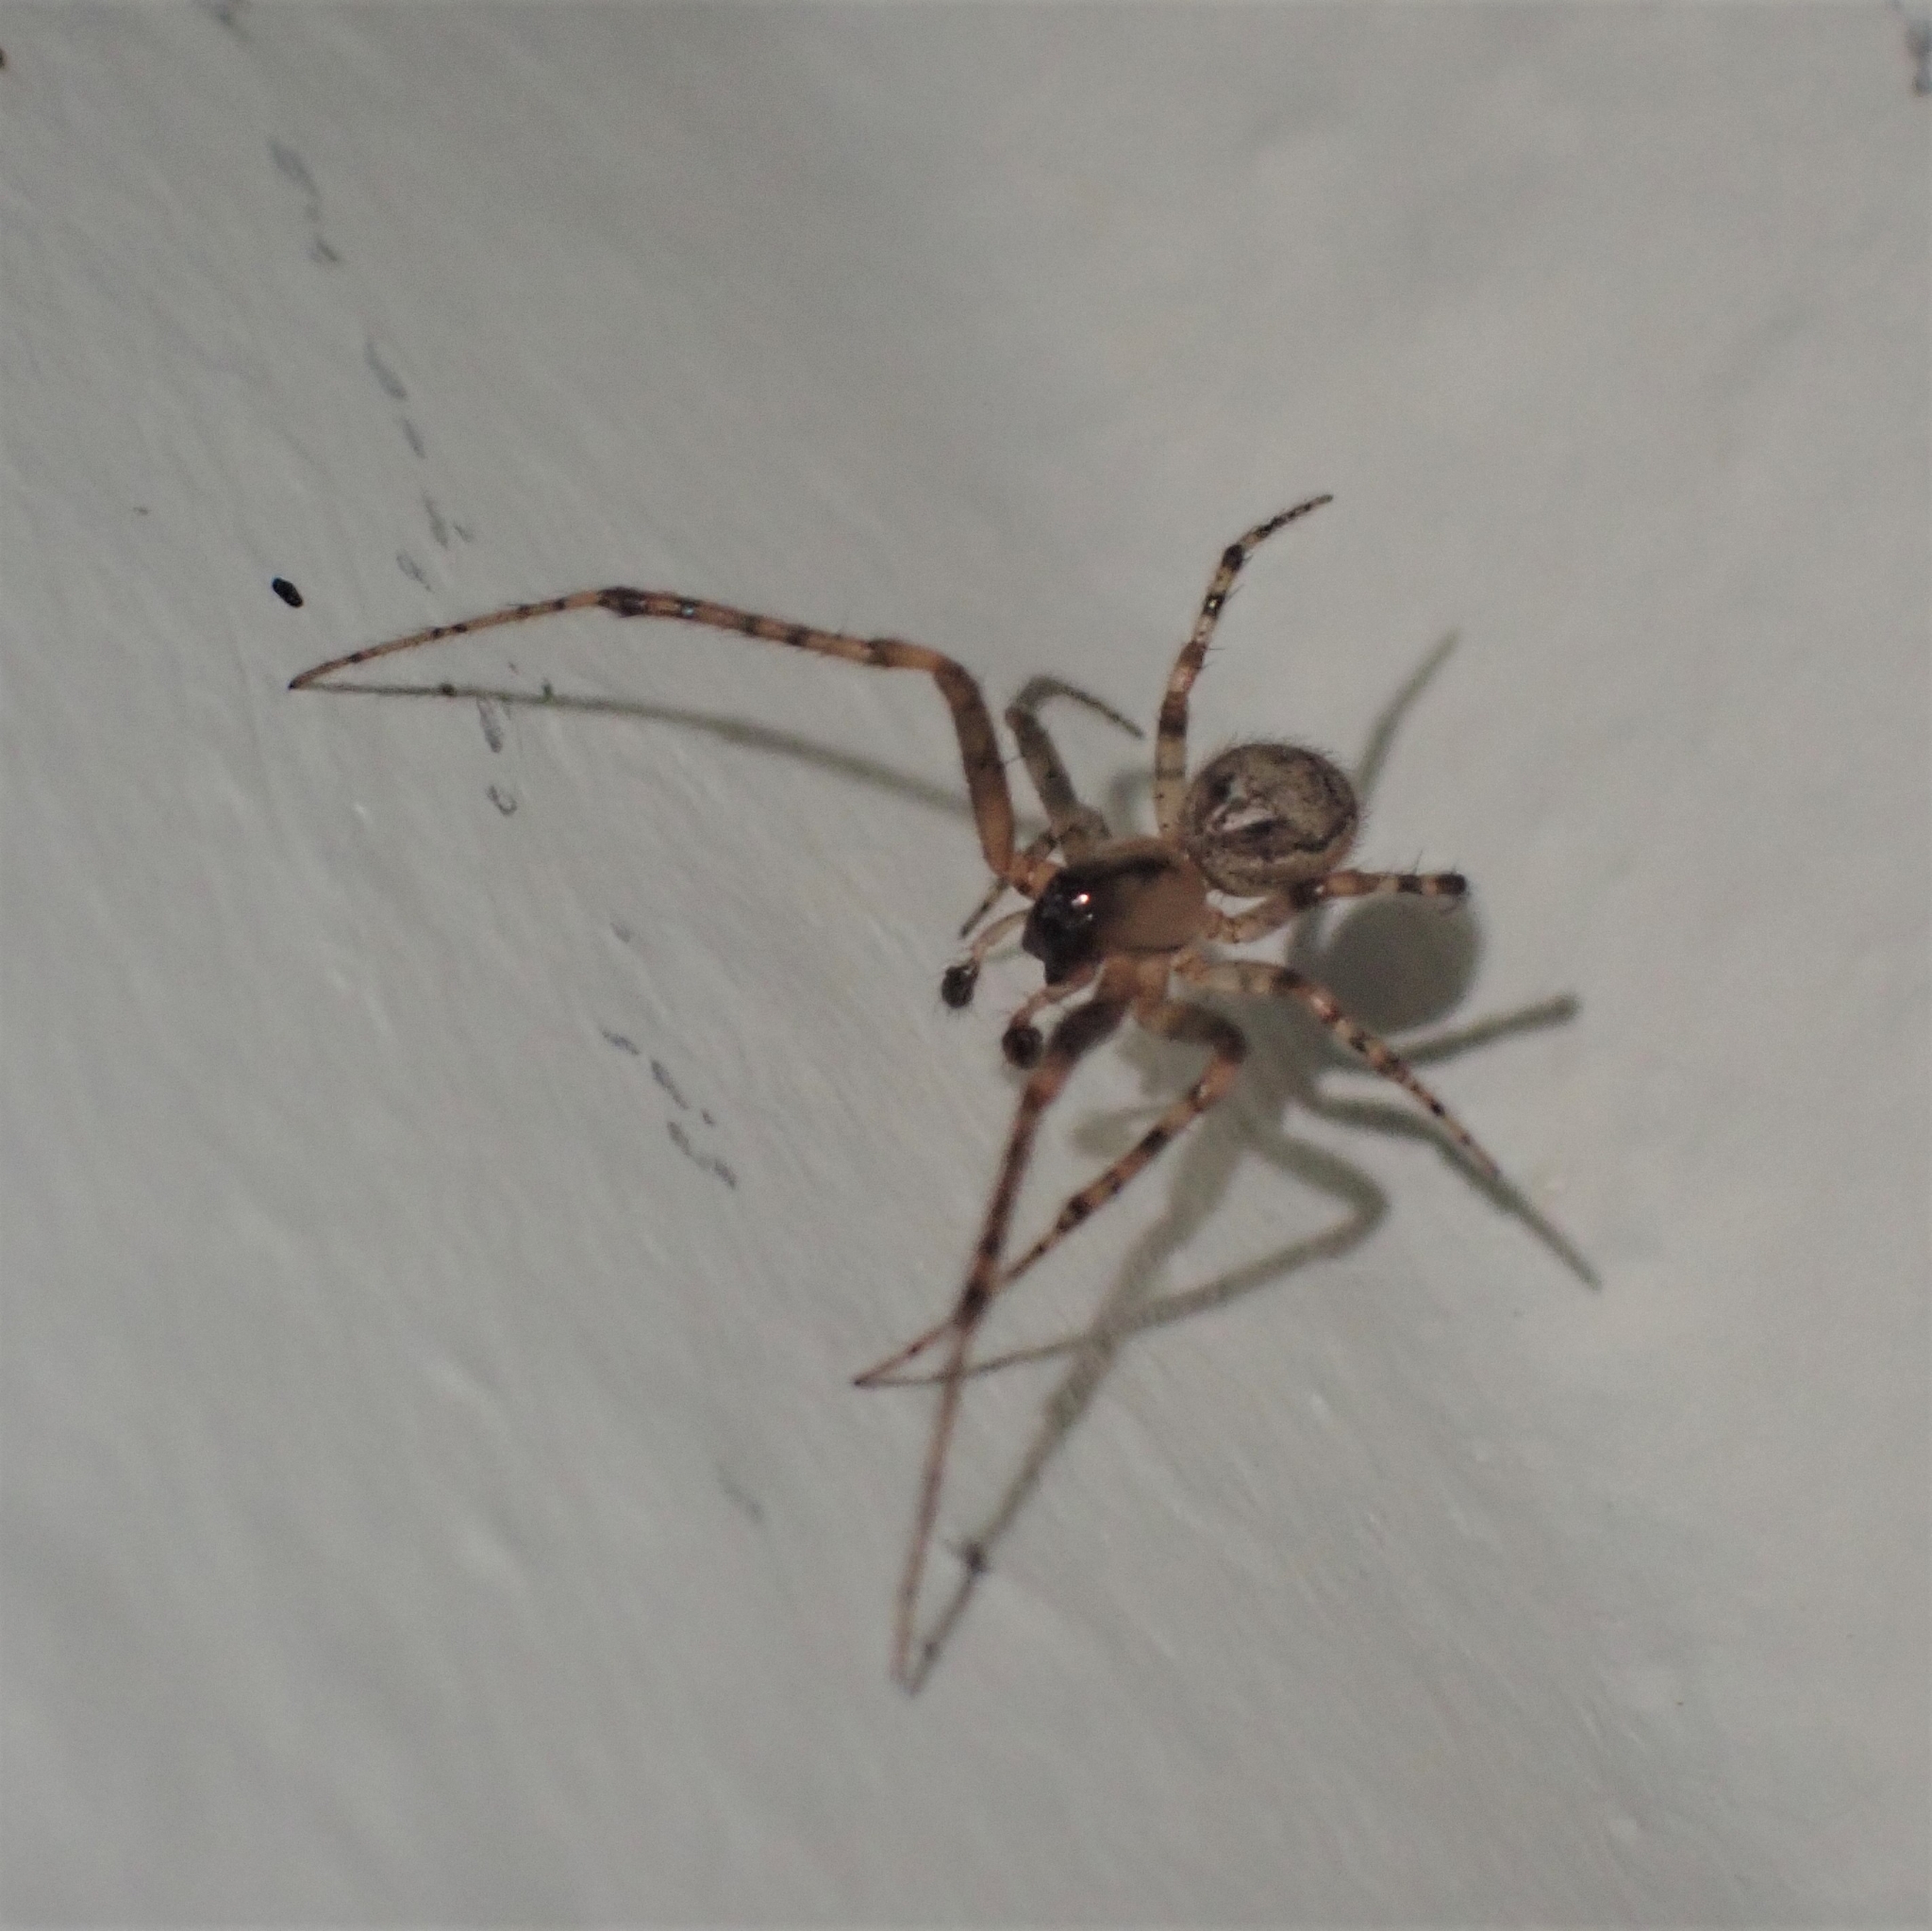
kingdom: Animalia
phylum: Arthropoda
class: Arachnida
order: Araneae
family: Araneidae
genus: Zygiella
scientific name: Zygiella x-notata
